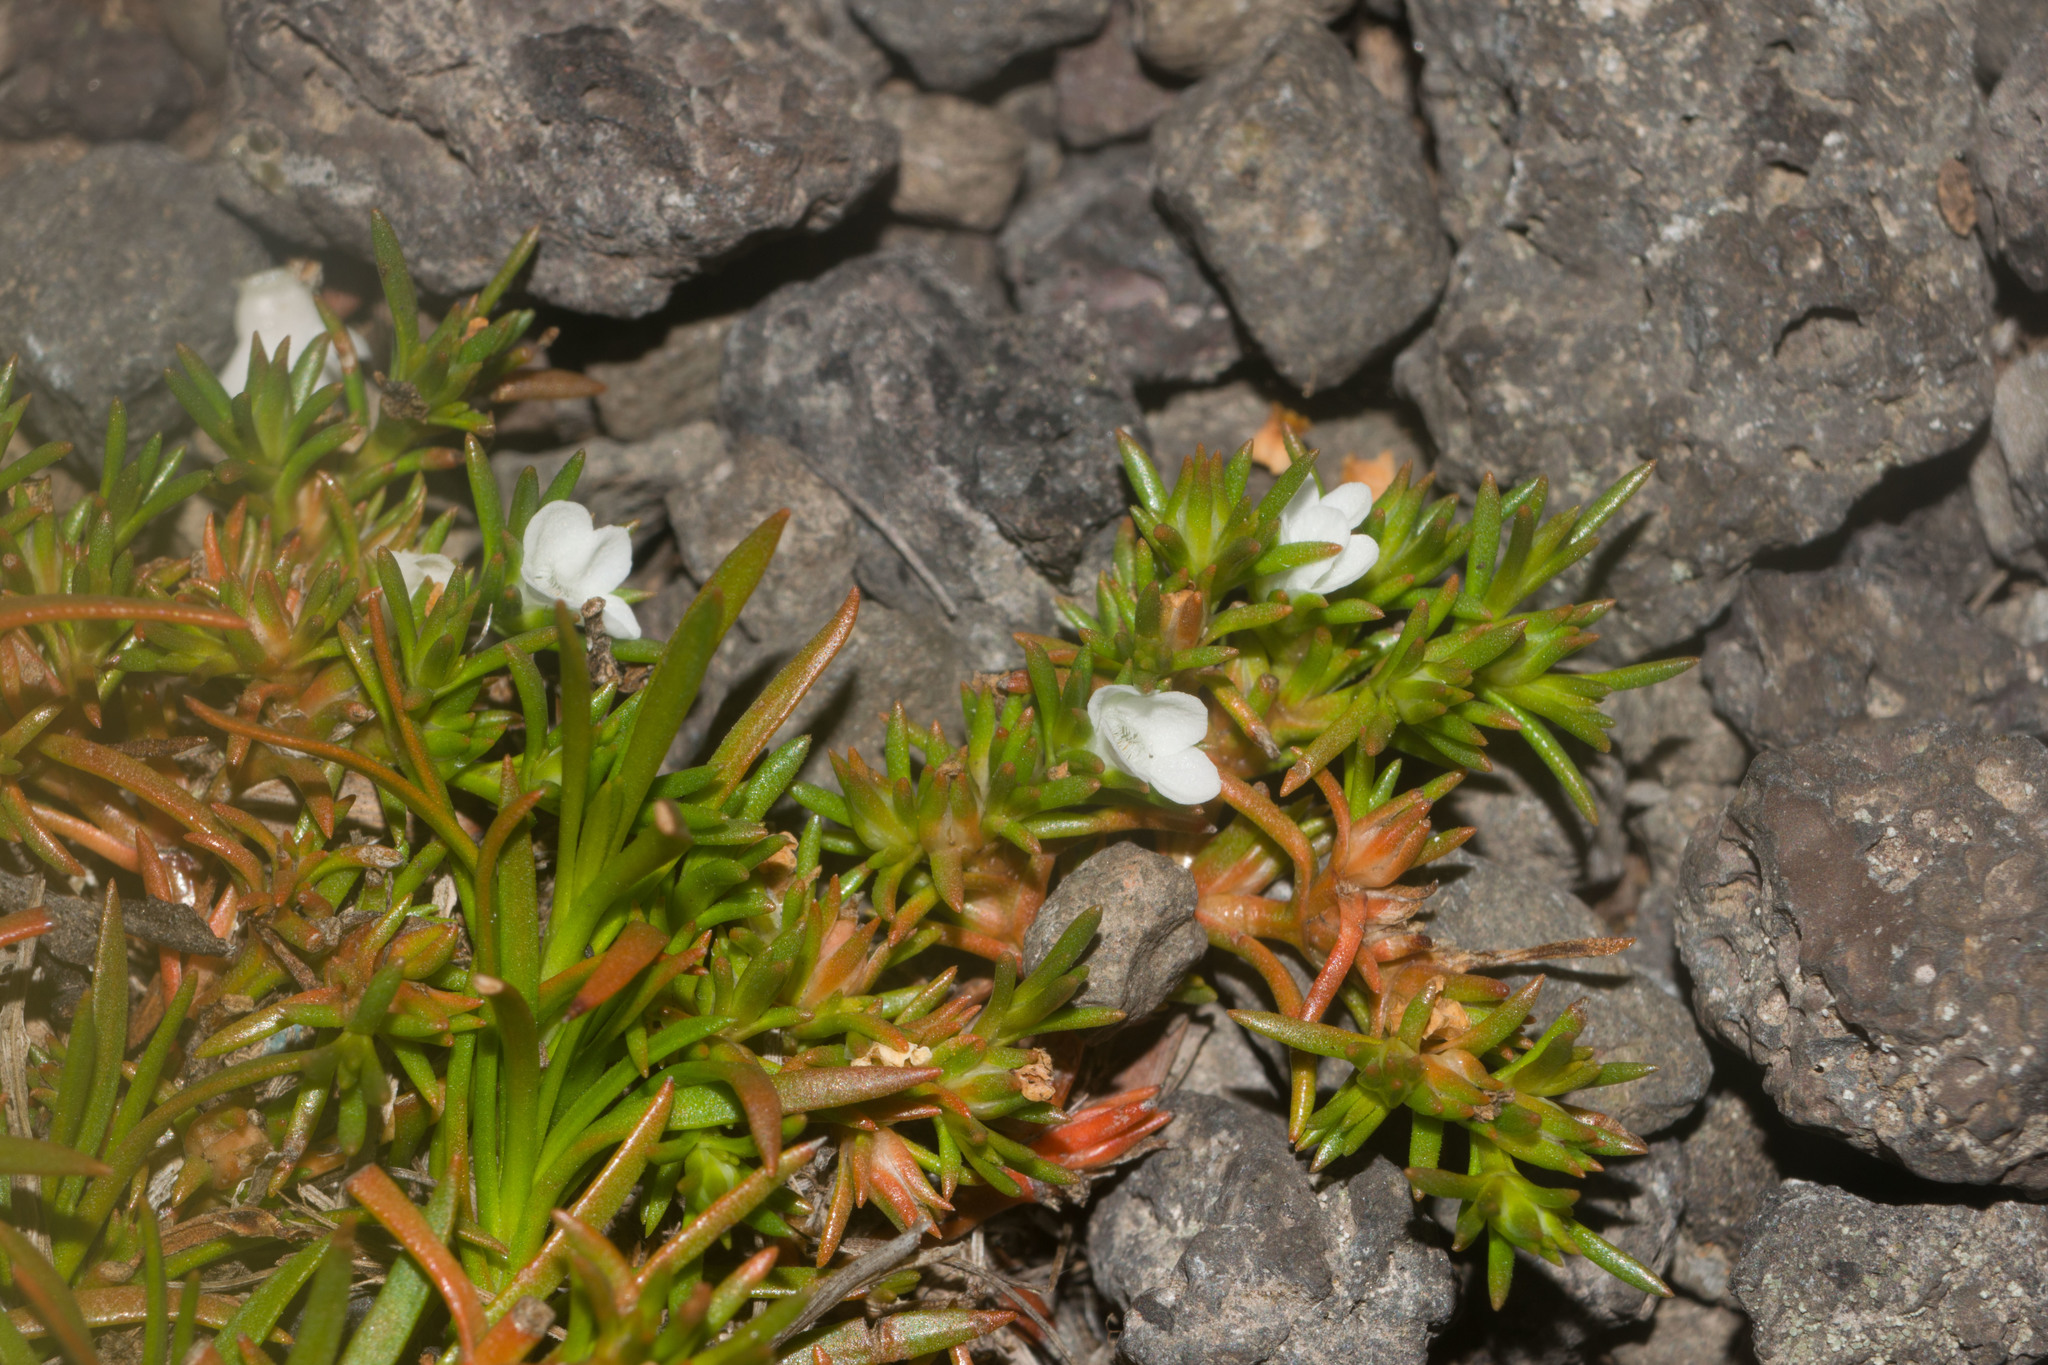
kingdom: Plantae
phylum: Tracheophyta
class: Magnoliopsida
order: Lamiales
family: Tetrachondraceae
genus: Polypremum
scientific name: Polypremum procumbens
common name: Juniper-leaf
